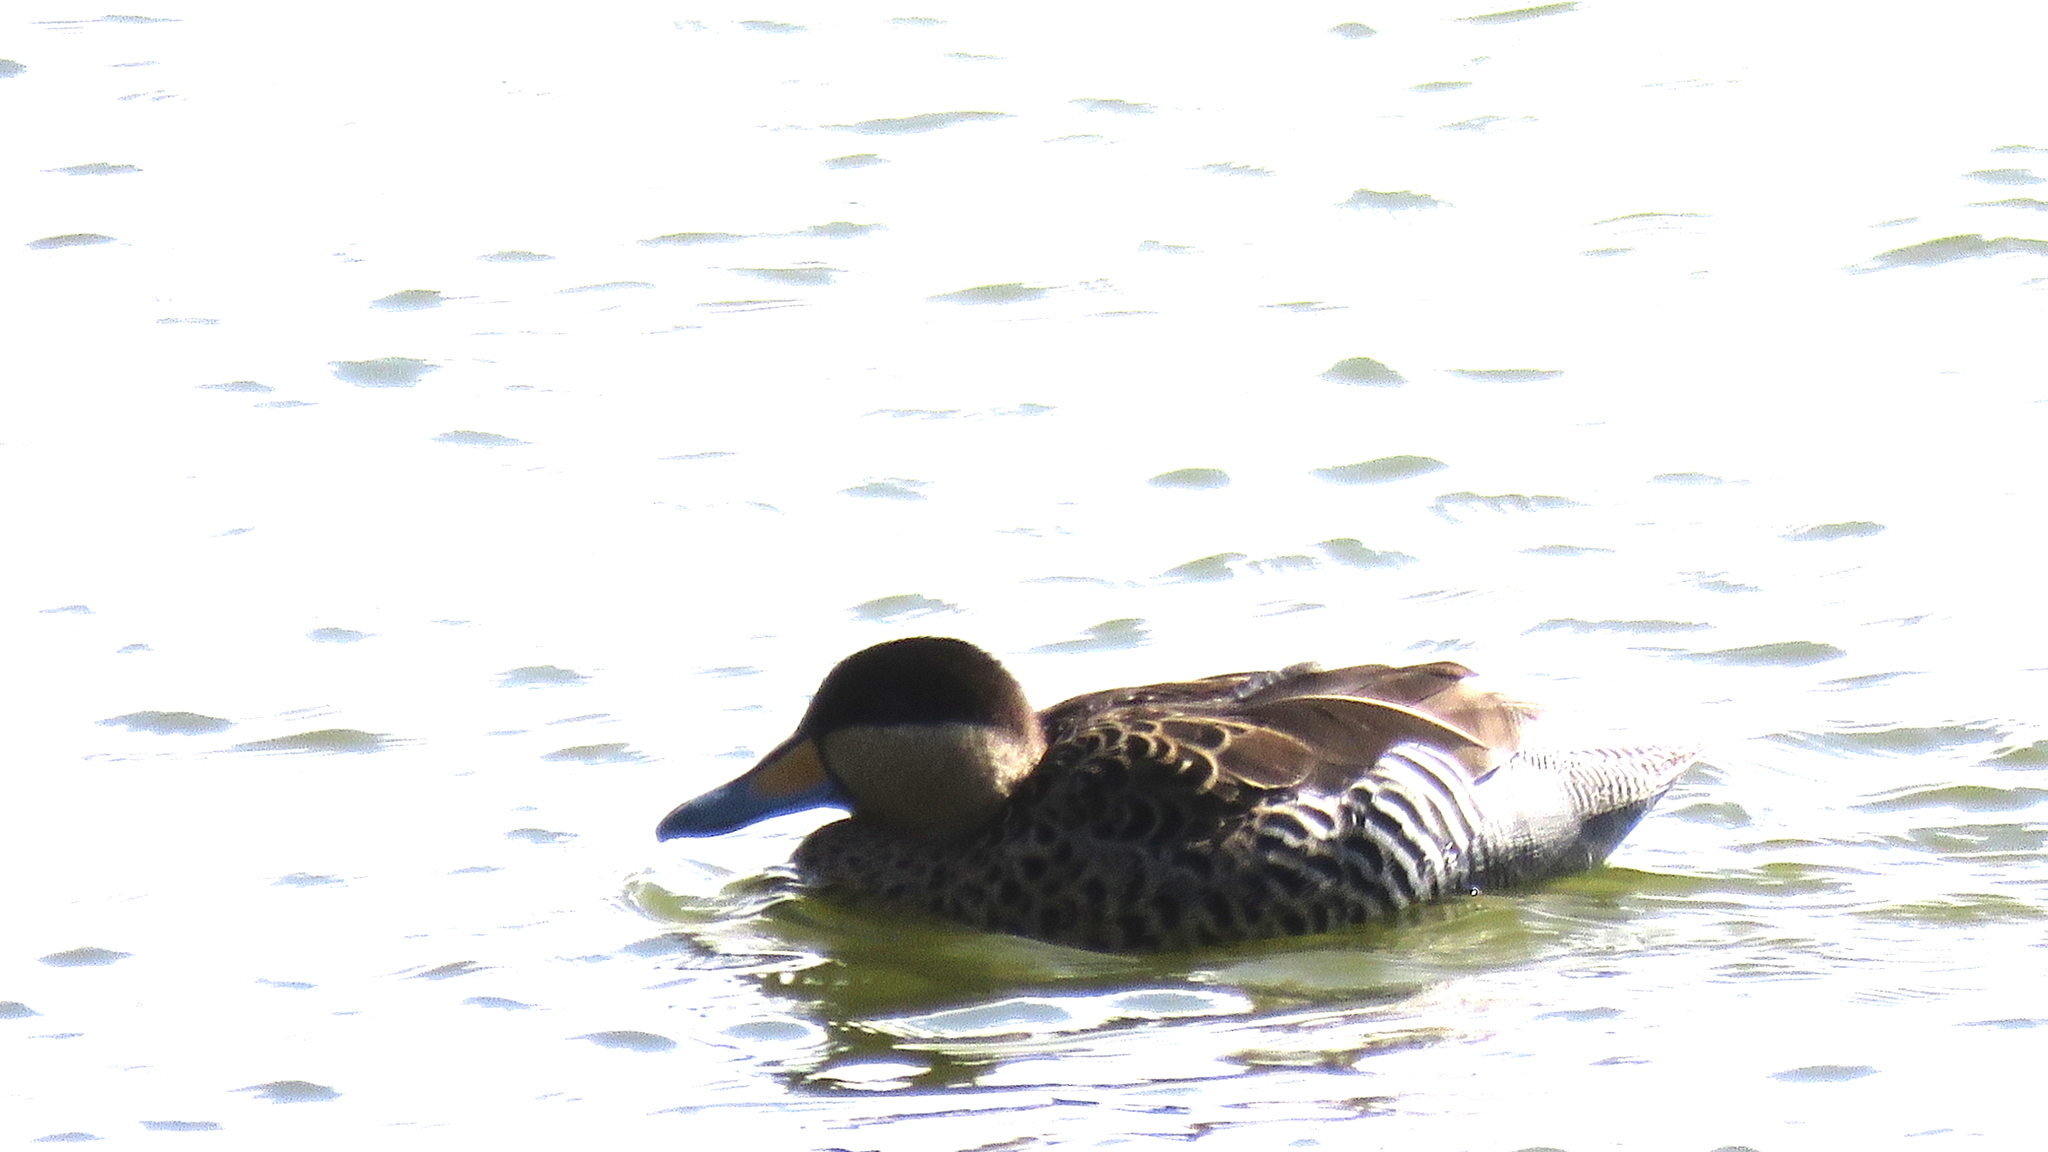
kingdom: Animalia
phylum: Chordata
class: Aves
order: Anseriformes
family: Anatidae
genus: Spatula
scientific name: Spatula versicolor
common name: Silver teal
